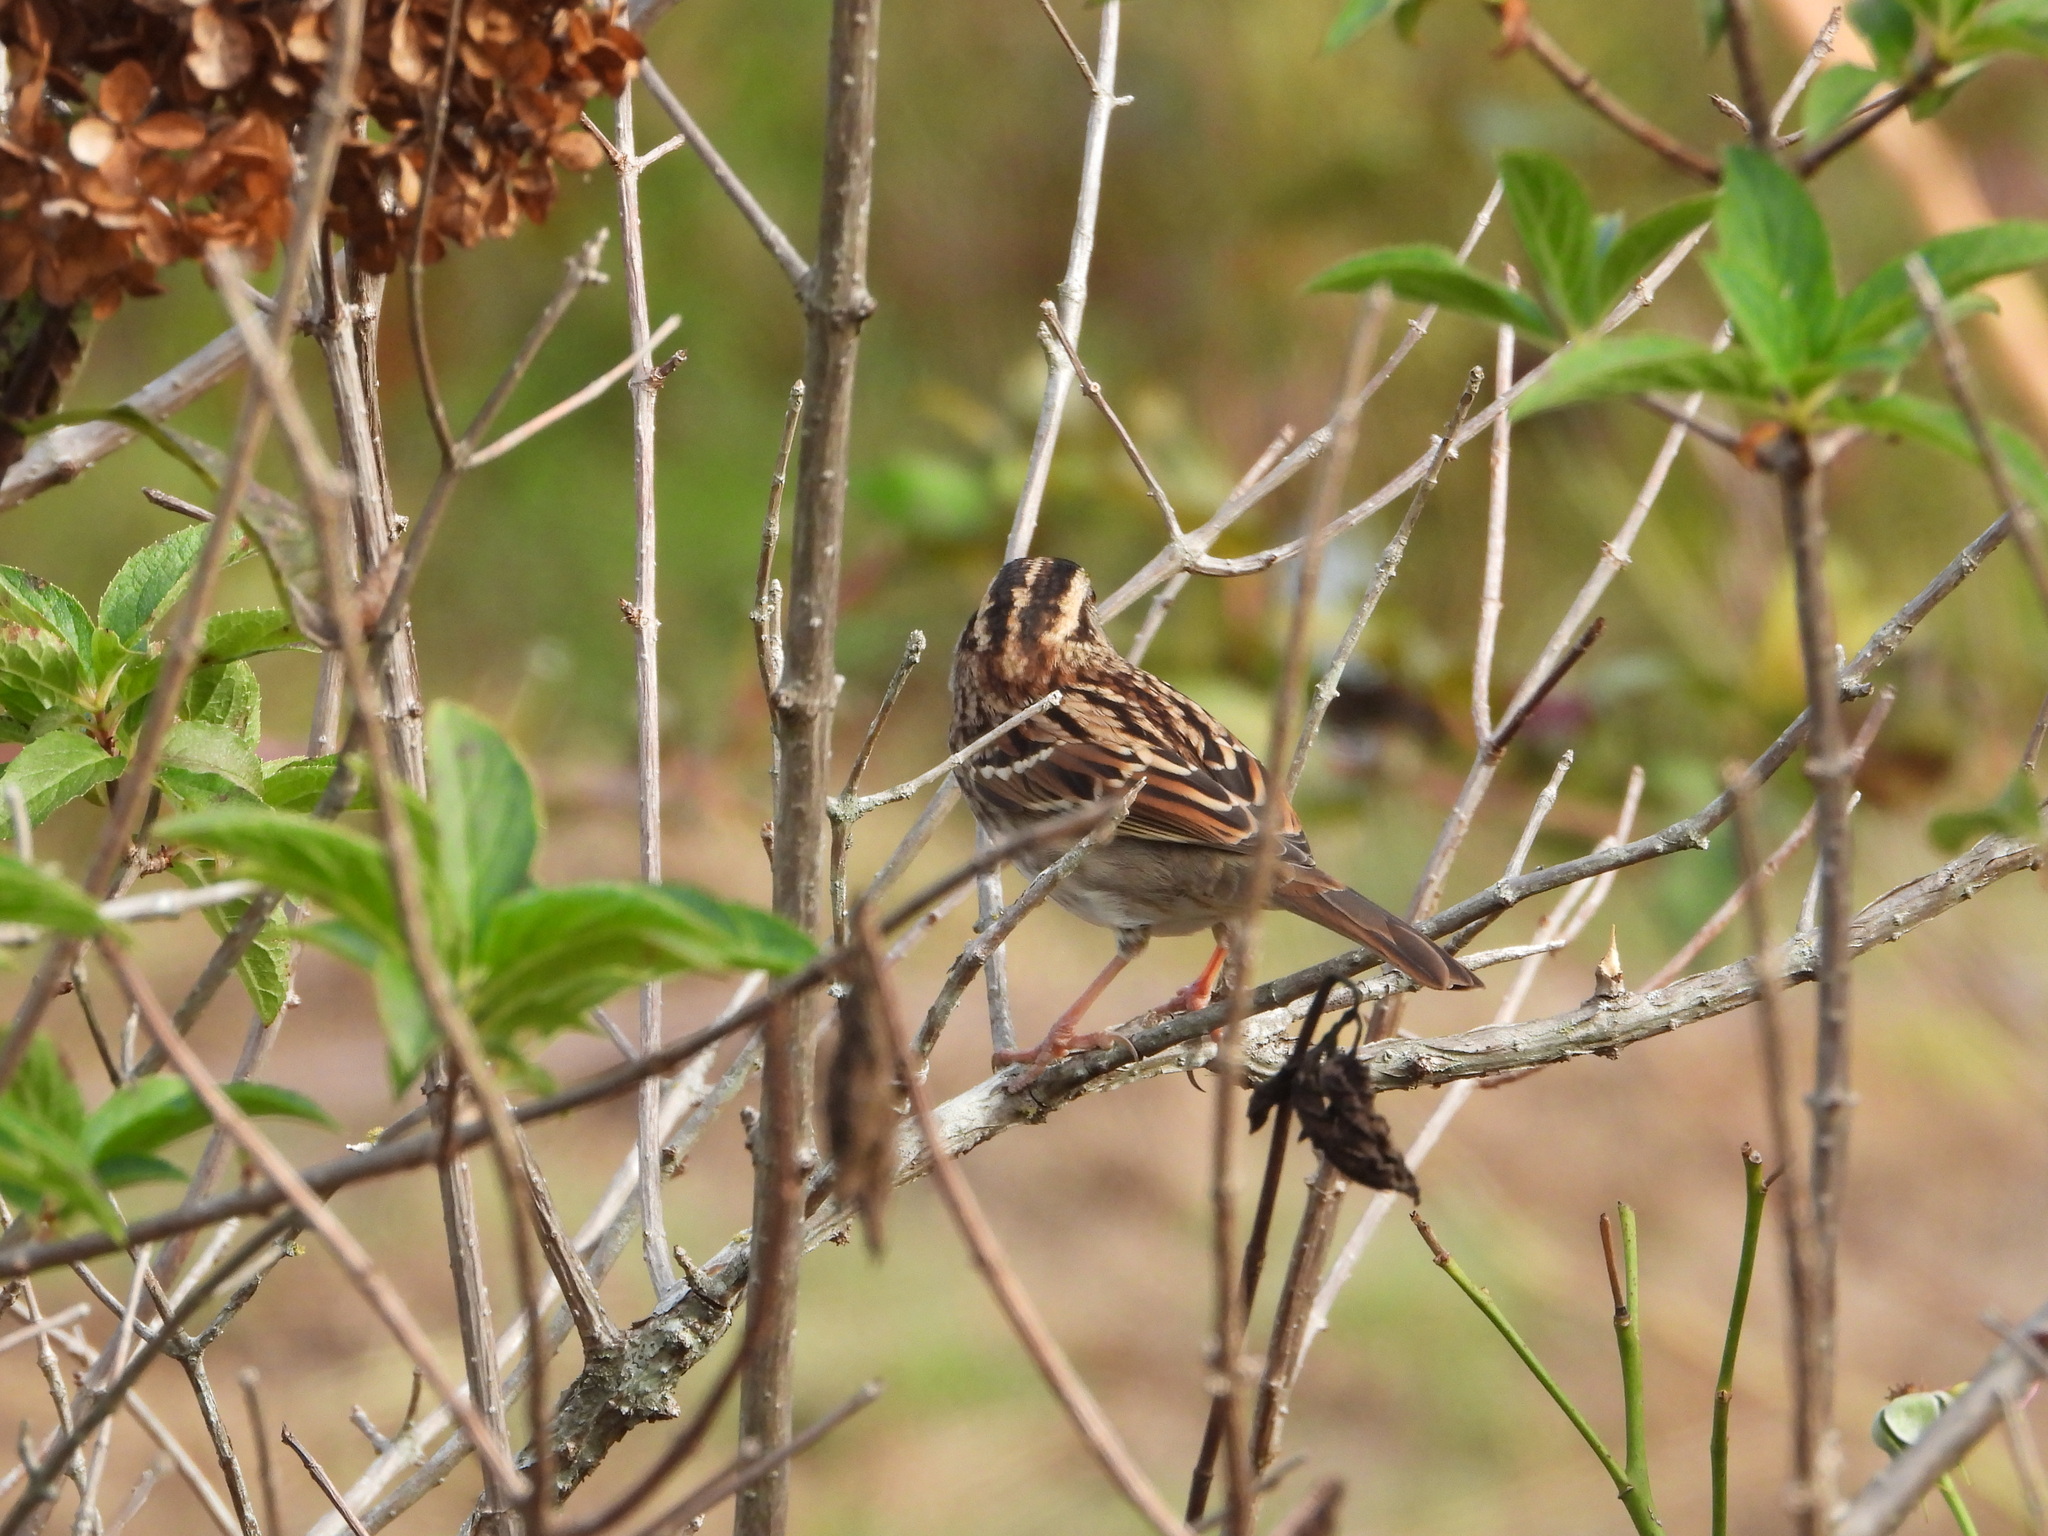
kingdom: Animalia
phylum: Chordata
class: Aves
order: Passeriformes
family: Passerellidae
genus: Zonotrichia
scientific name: Zonotrichia albicollis
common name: White-throated sparrow
